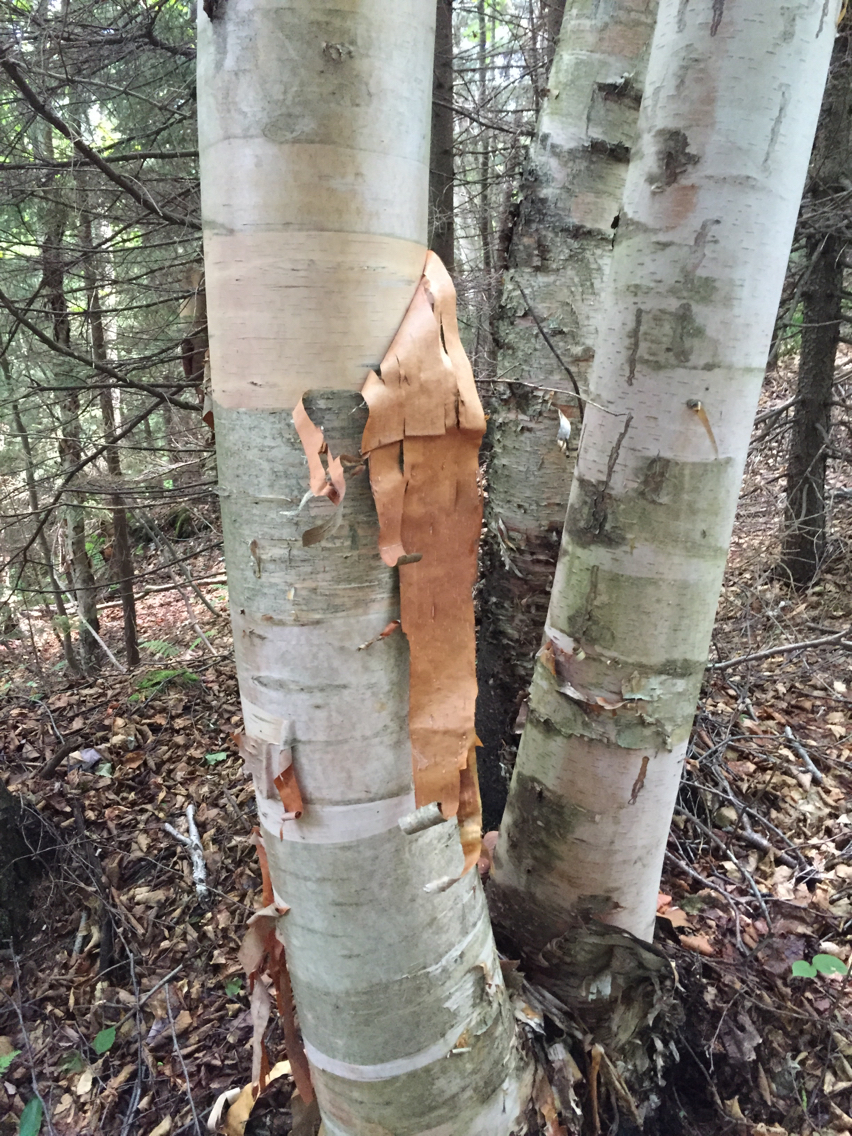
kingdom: Plantae
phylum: Tracheophyta
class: Magnoliopsida
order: Fagales
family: Betulaceae
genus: Betula
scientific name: Betula cordifolia
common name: Mountain white birch
